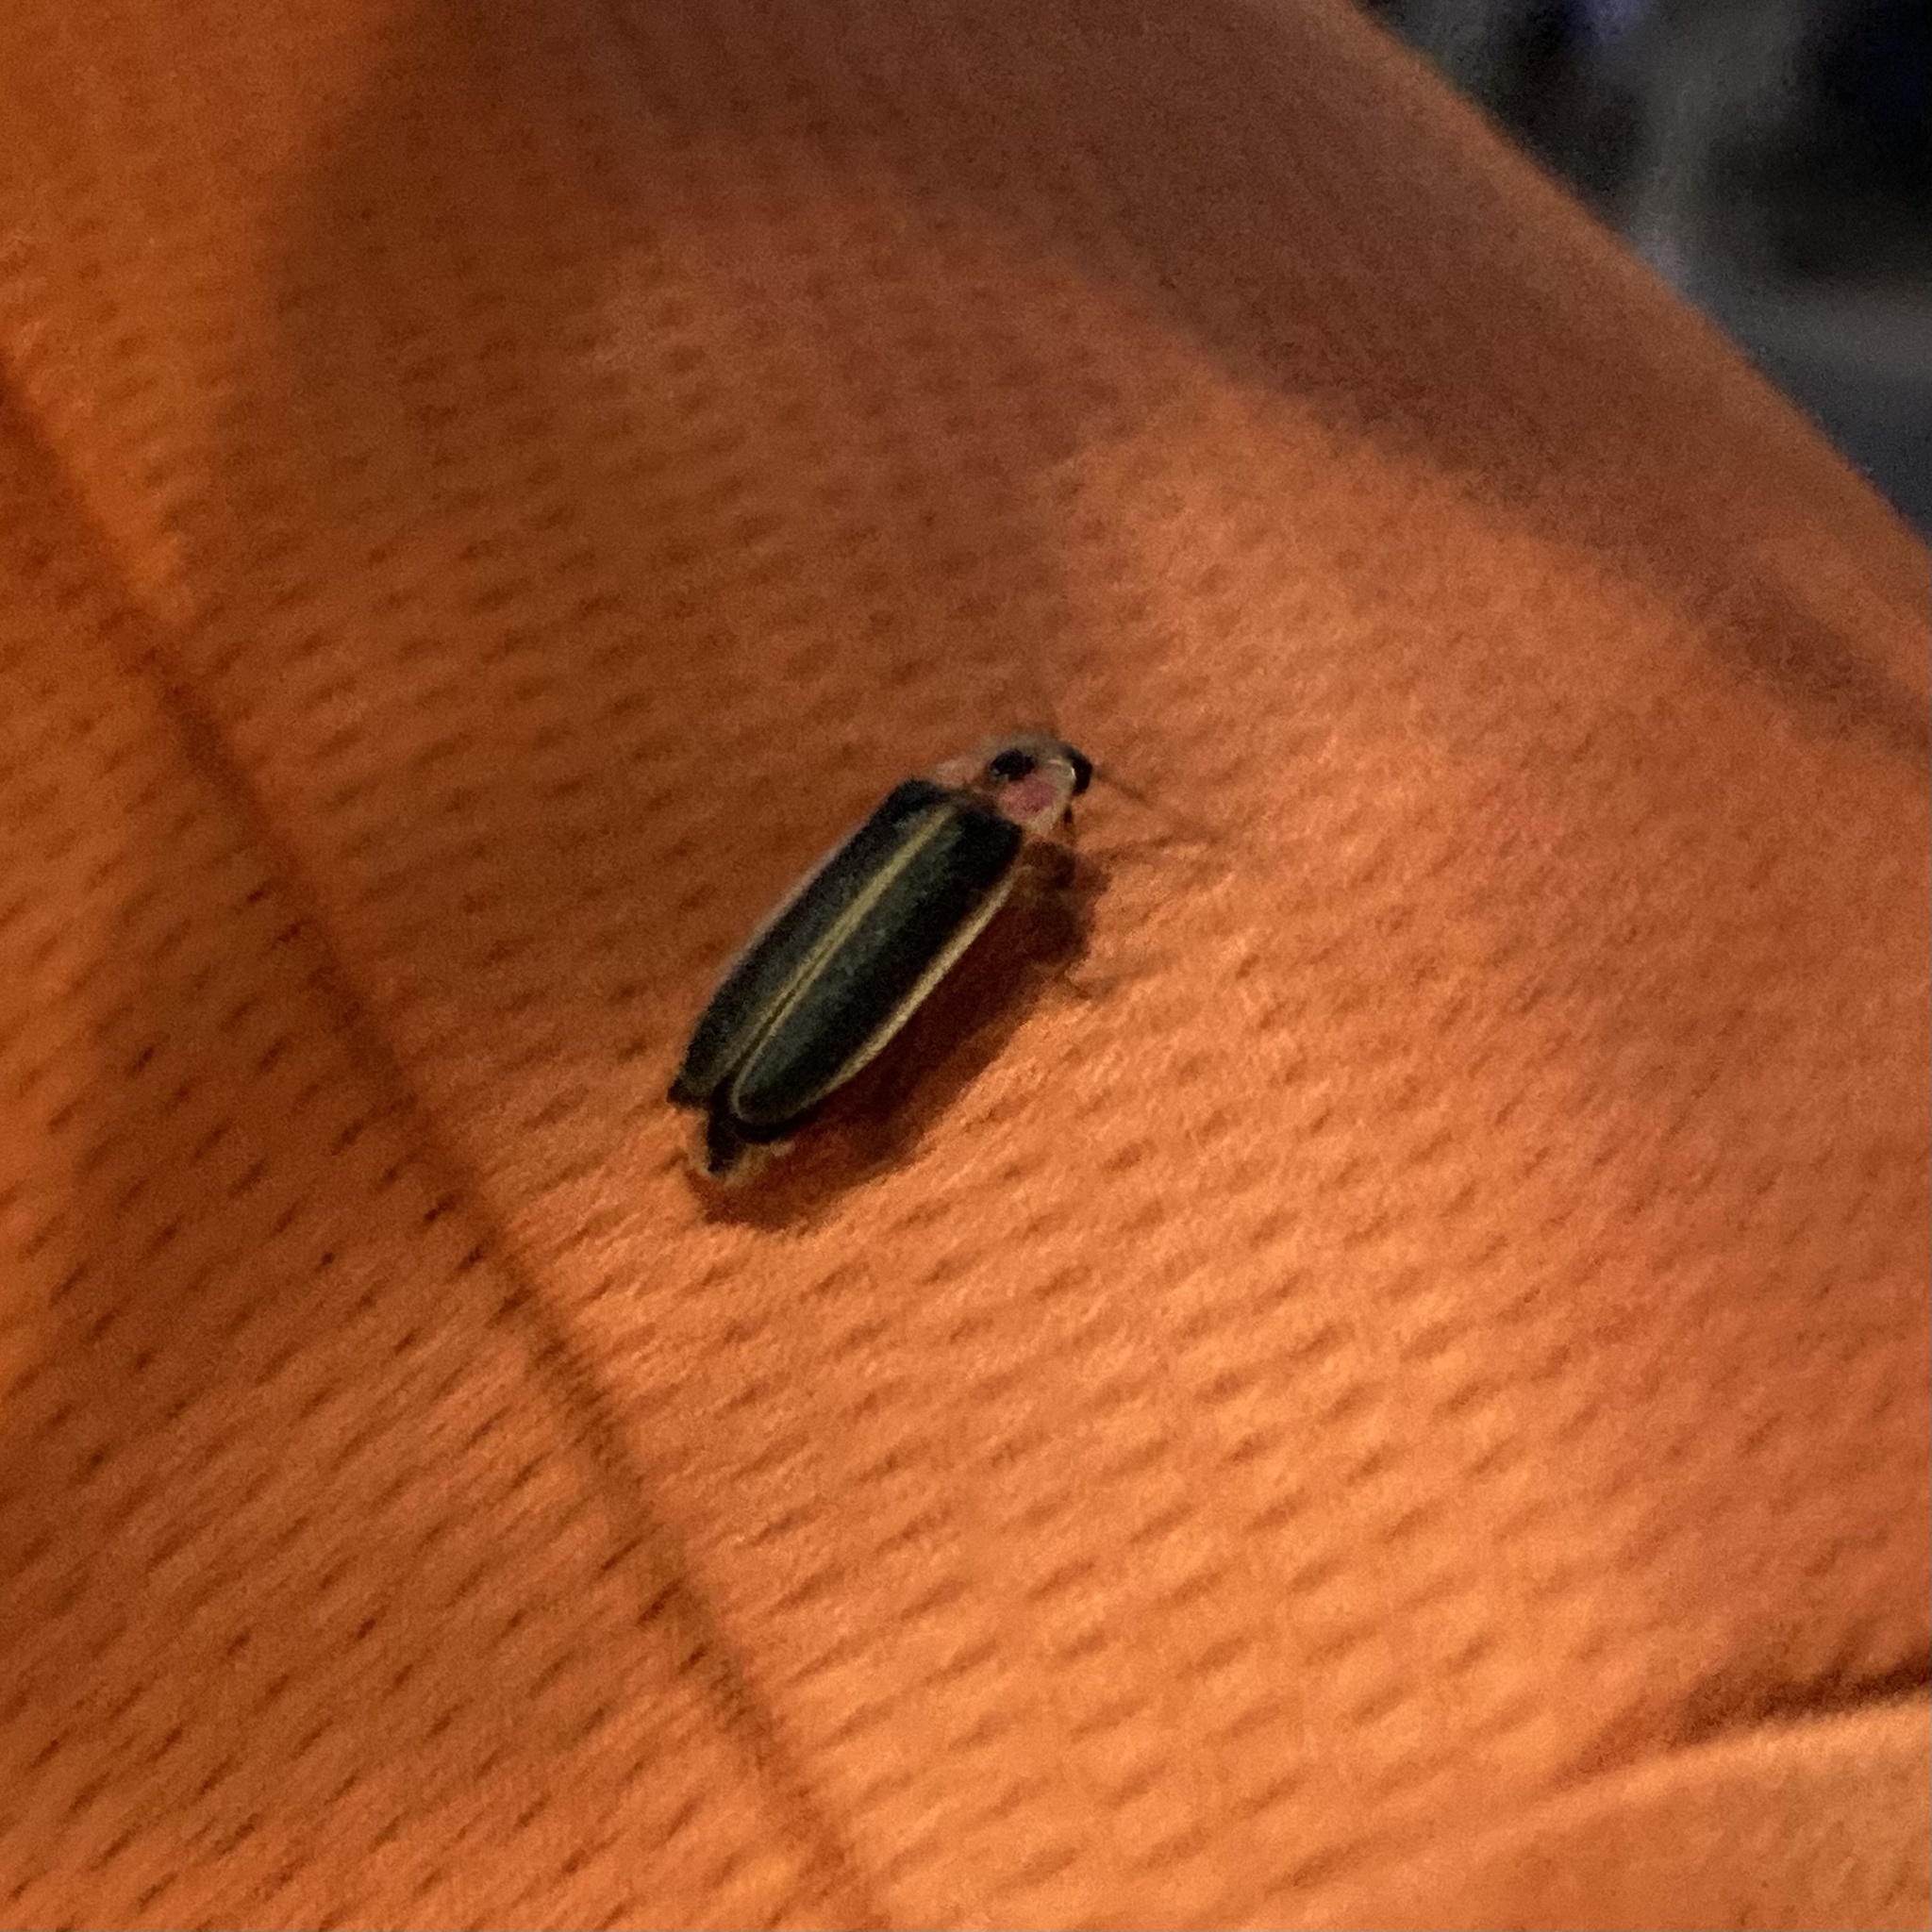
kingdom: Animalia
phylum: Arthropoda
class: Insecta
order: Coleoptera
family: Lampyridae
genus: Photinus
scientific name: Photinus pyralis
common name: Big dipper firefly
